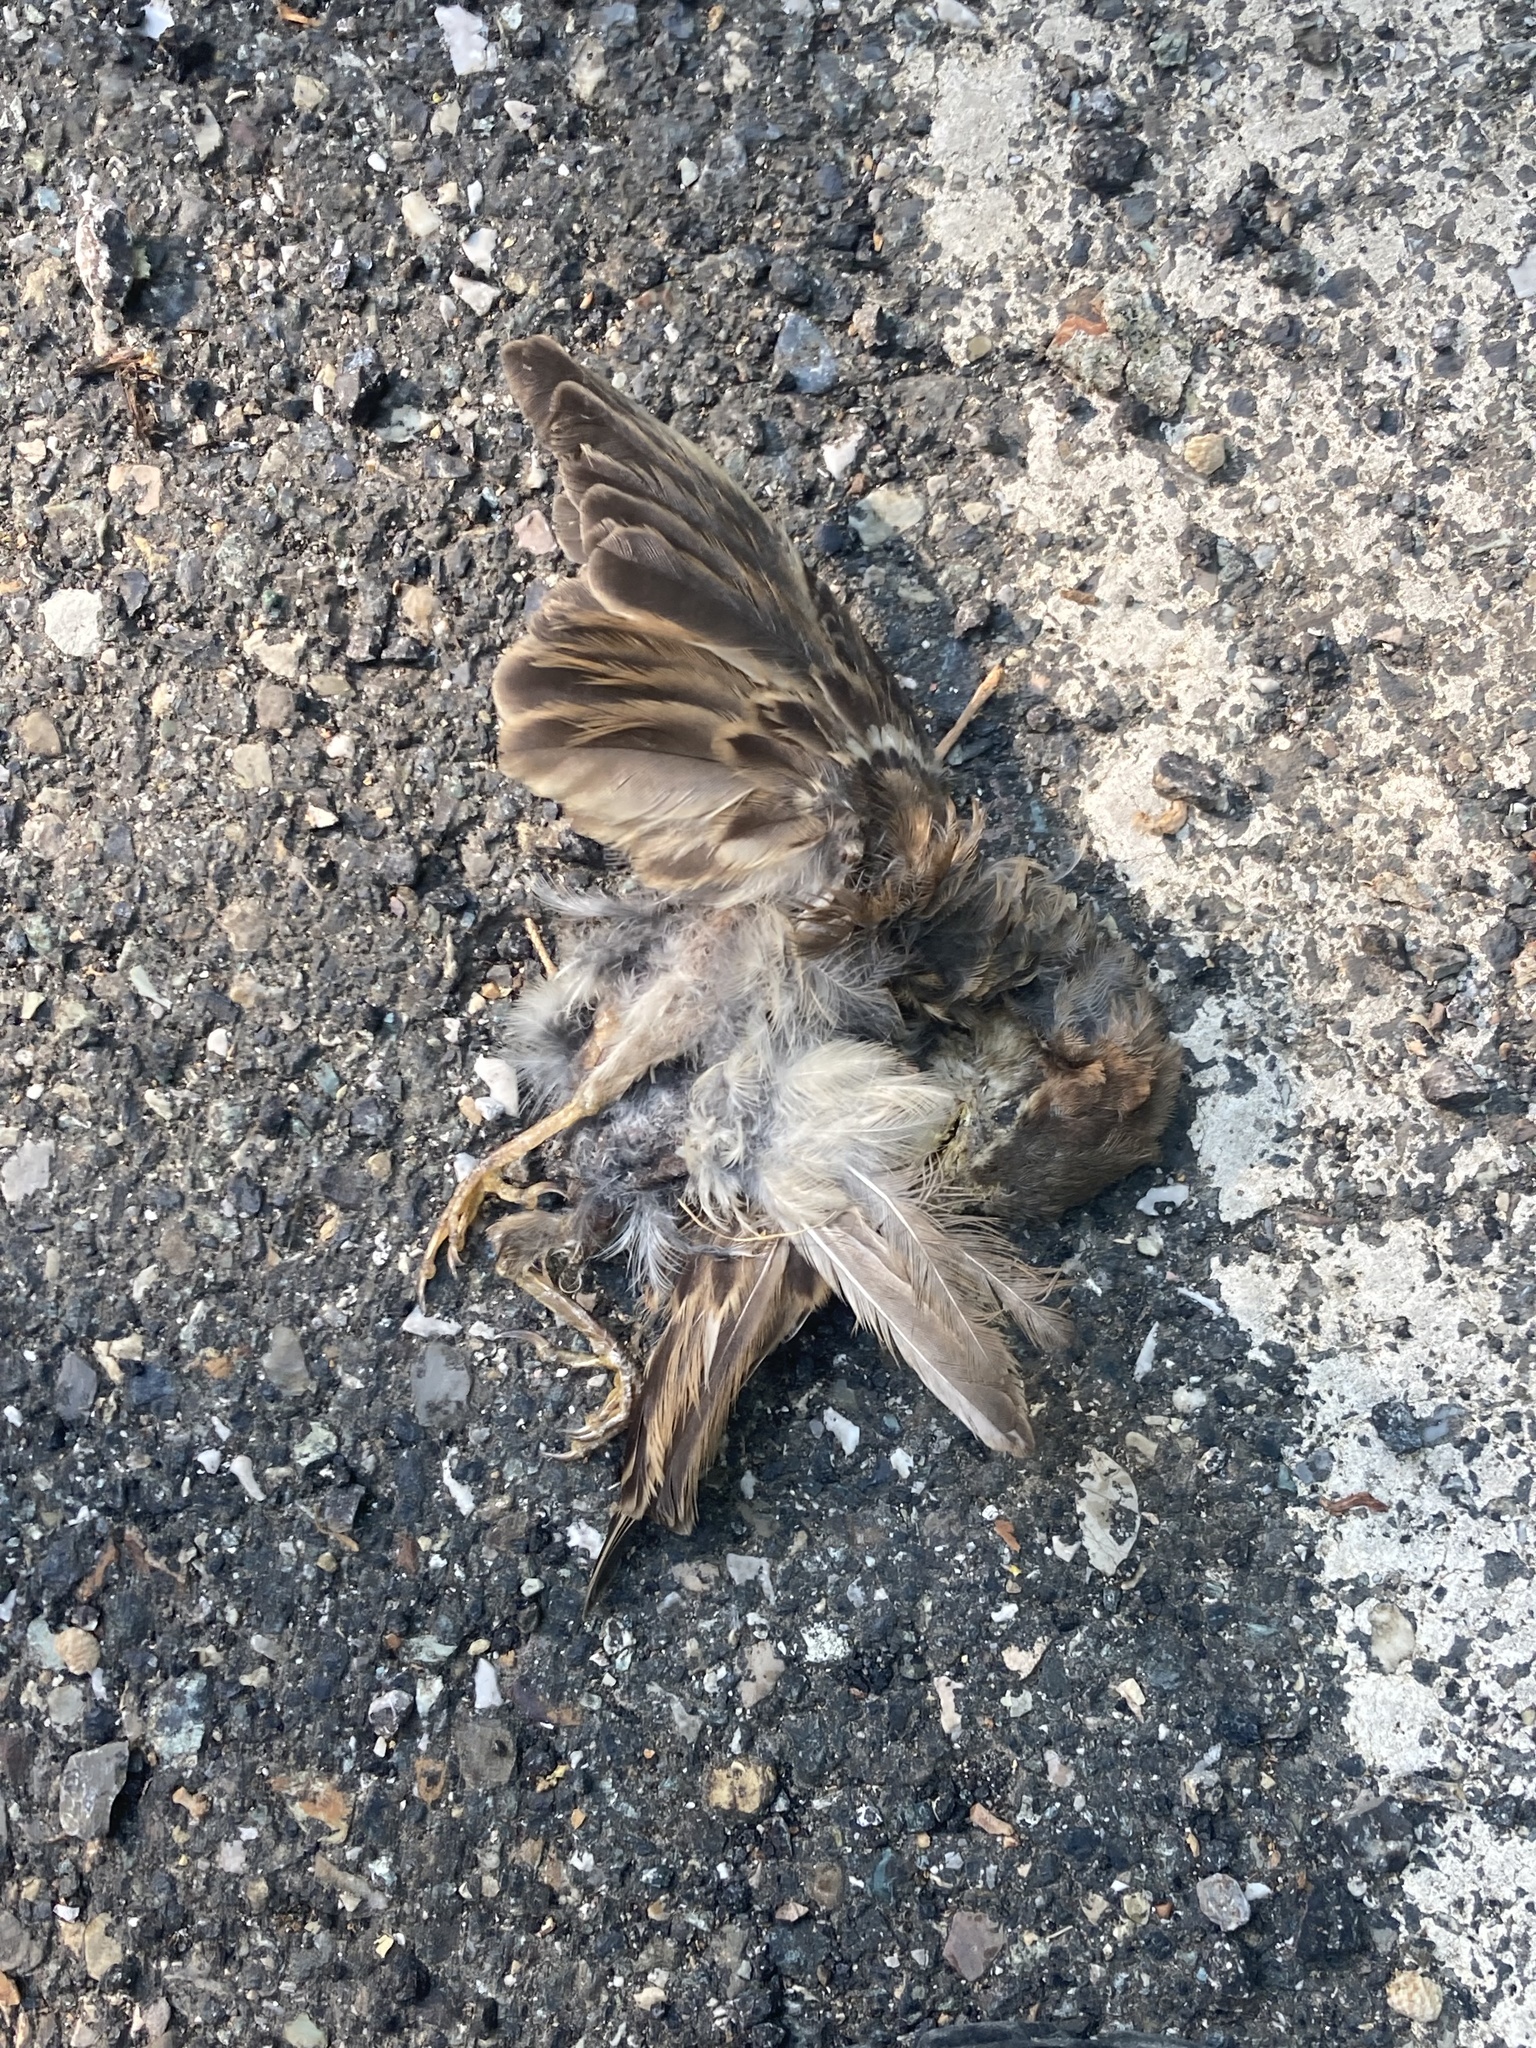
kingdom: Animalia
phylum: Chordata
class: Aves
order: Passeriformes
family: Passeridae
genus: Passer
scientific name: Passer italiae
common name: Italian sparrow
